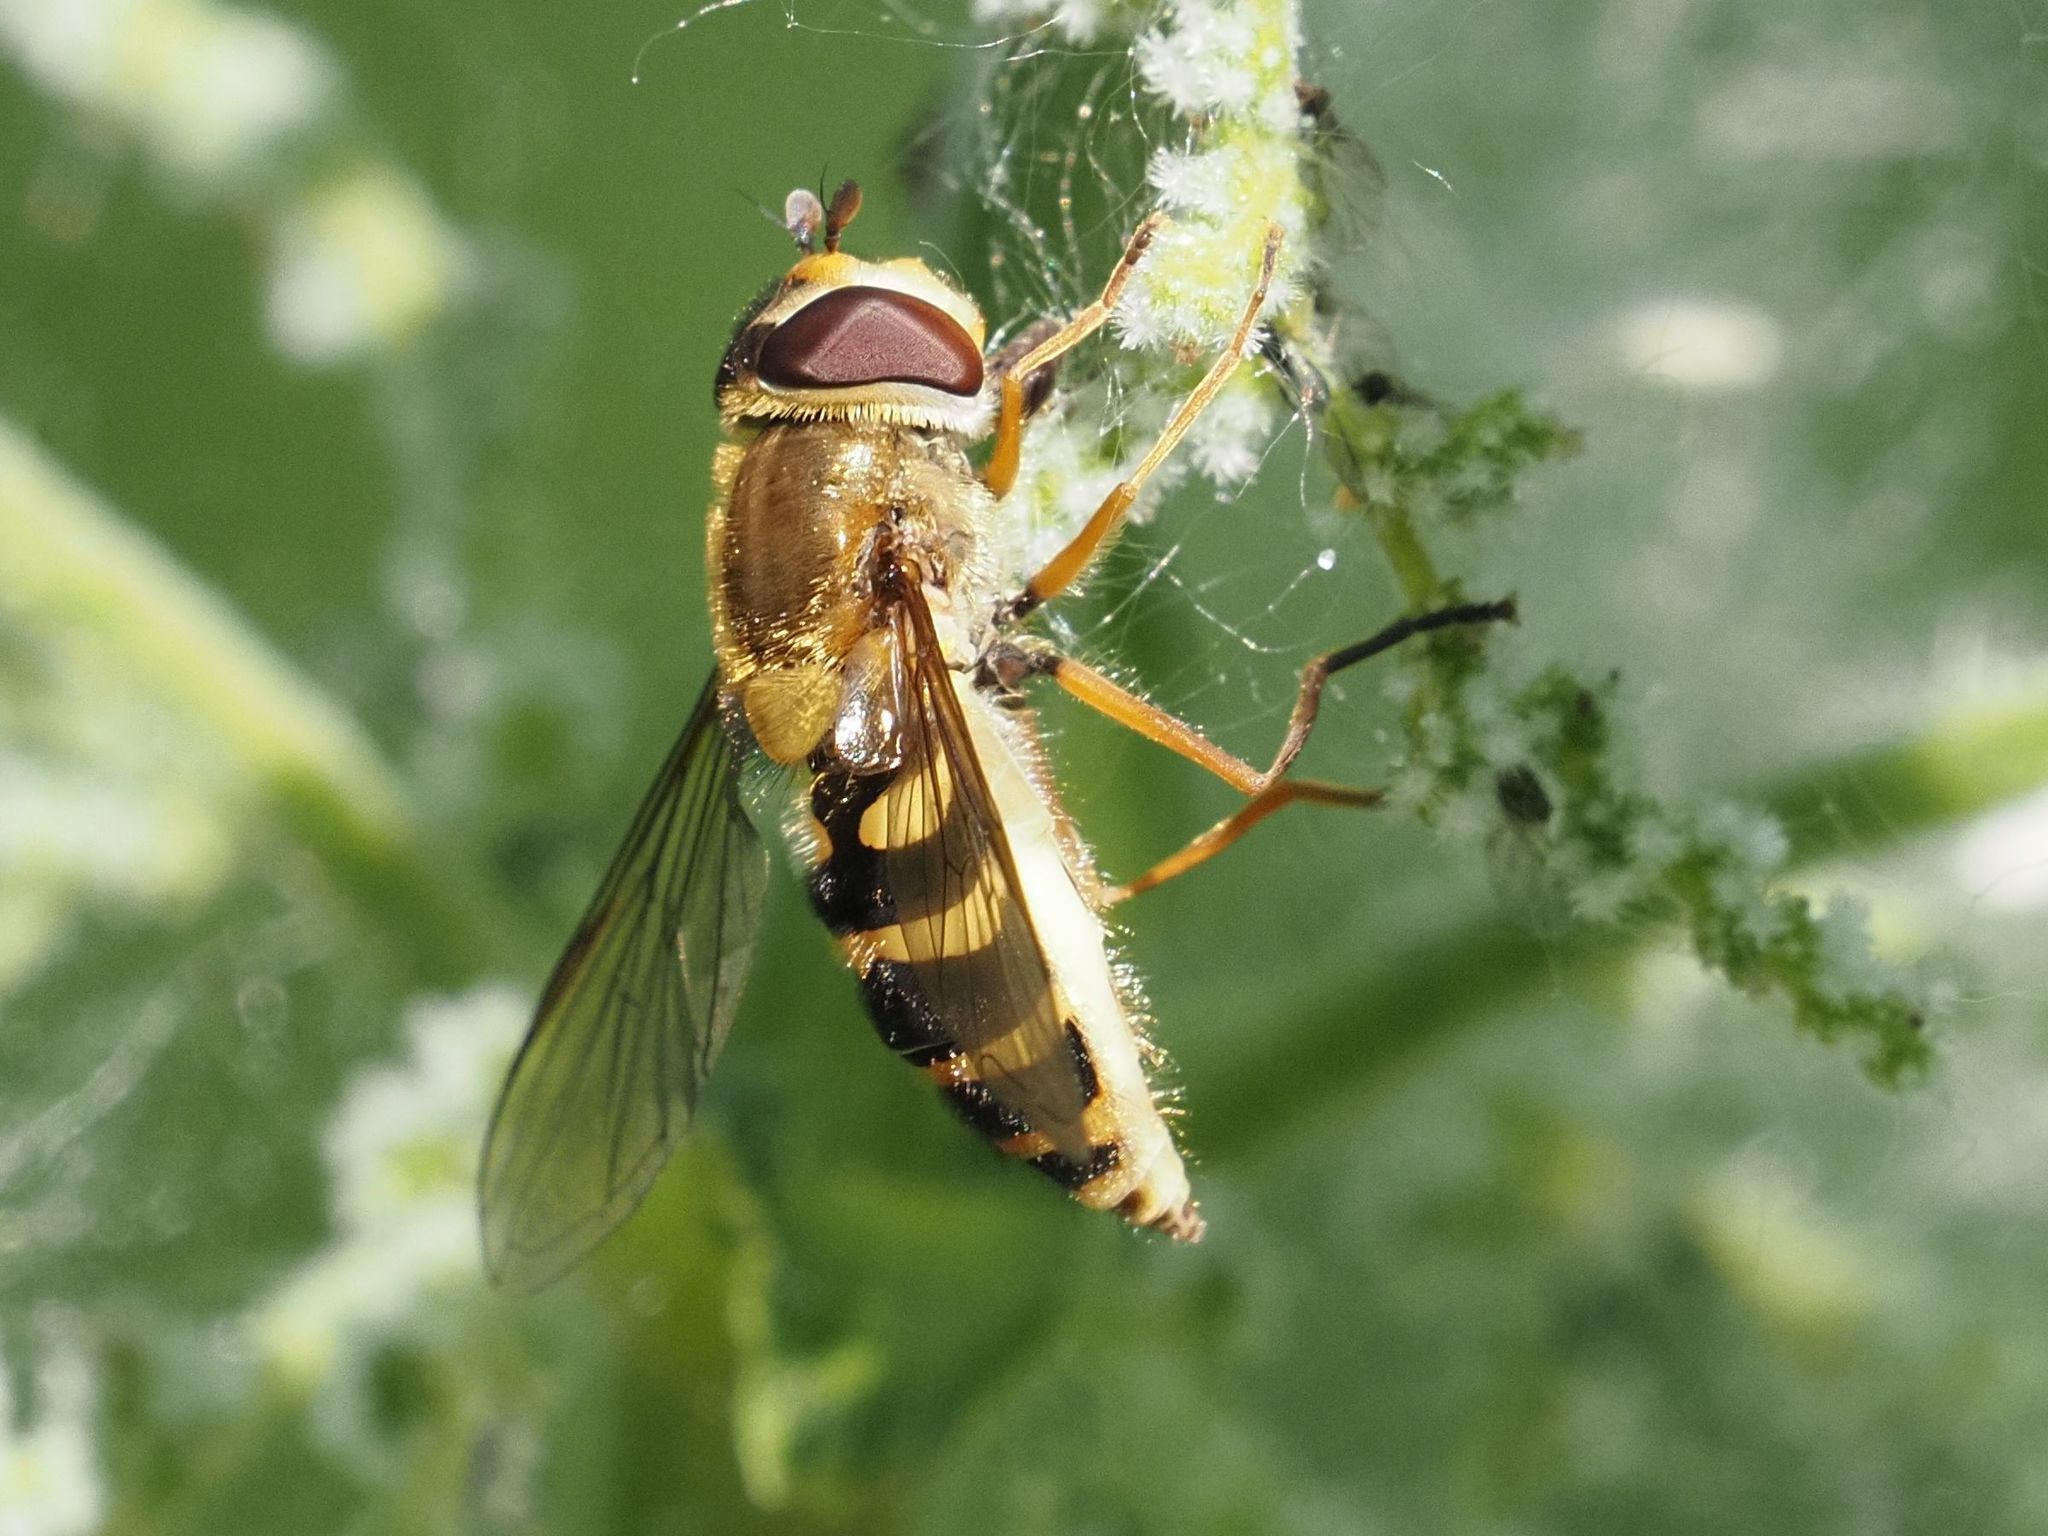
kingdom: Animalia
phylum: Arthropoda
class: Insecta
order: Diptera
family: Syrphidae
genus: Syrphus
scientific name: Syrphus ribesii
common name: Common flower fly
